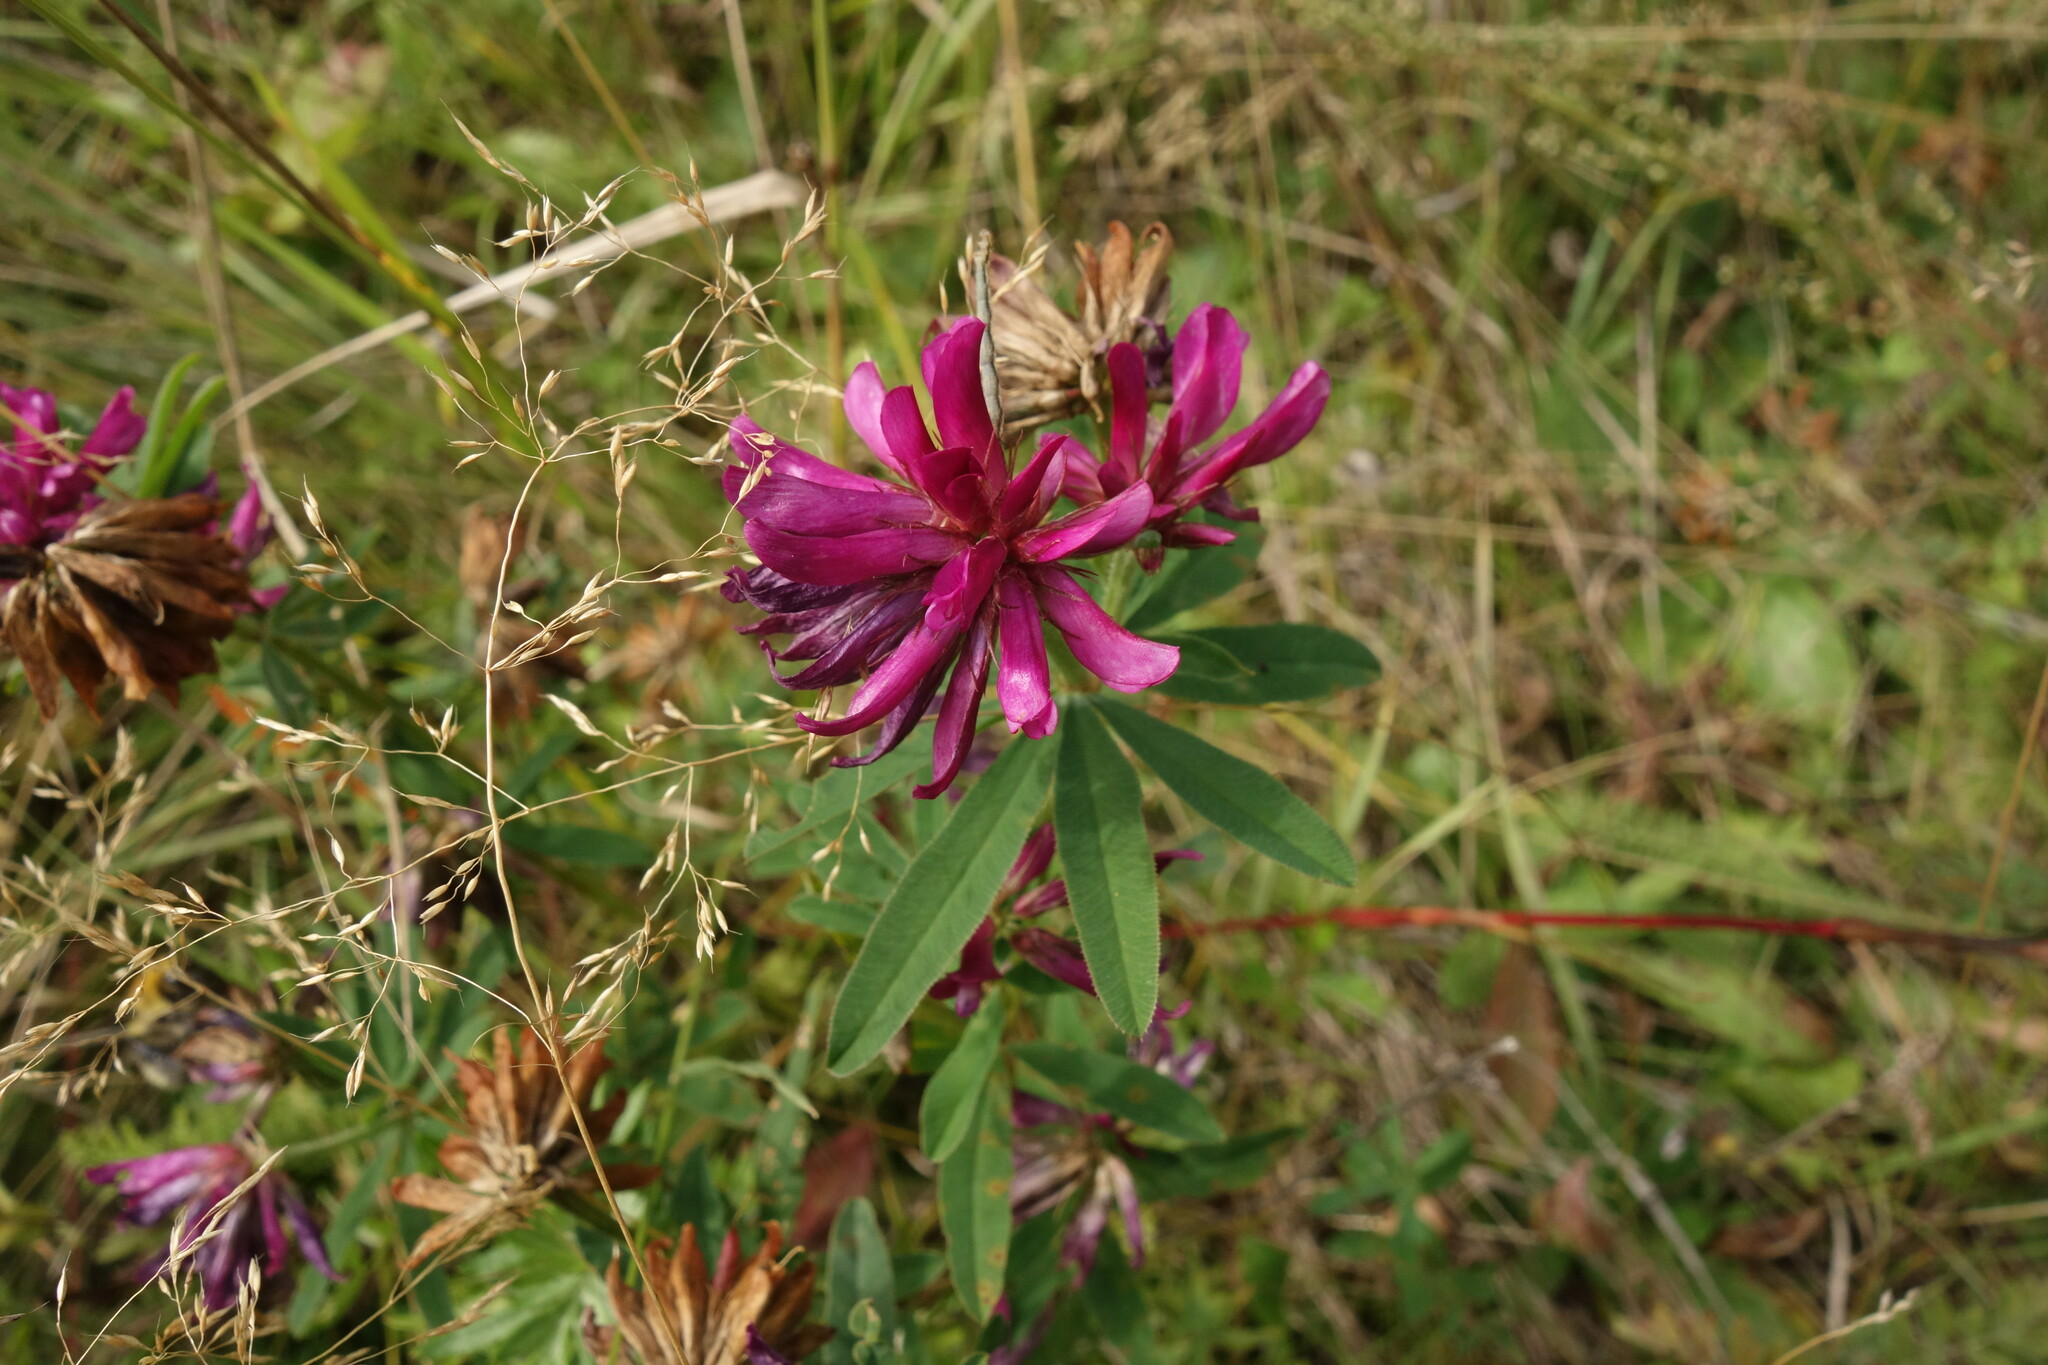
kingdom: Plantae
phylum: Tracheophyta
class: Magnoliopsida
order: Fabales
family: Fabaceae
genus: Trifolium
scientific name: Trifolium lupinaster
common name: Lupine clover
